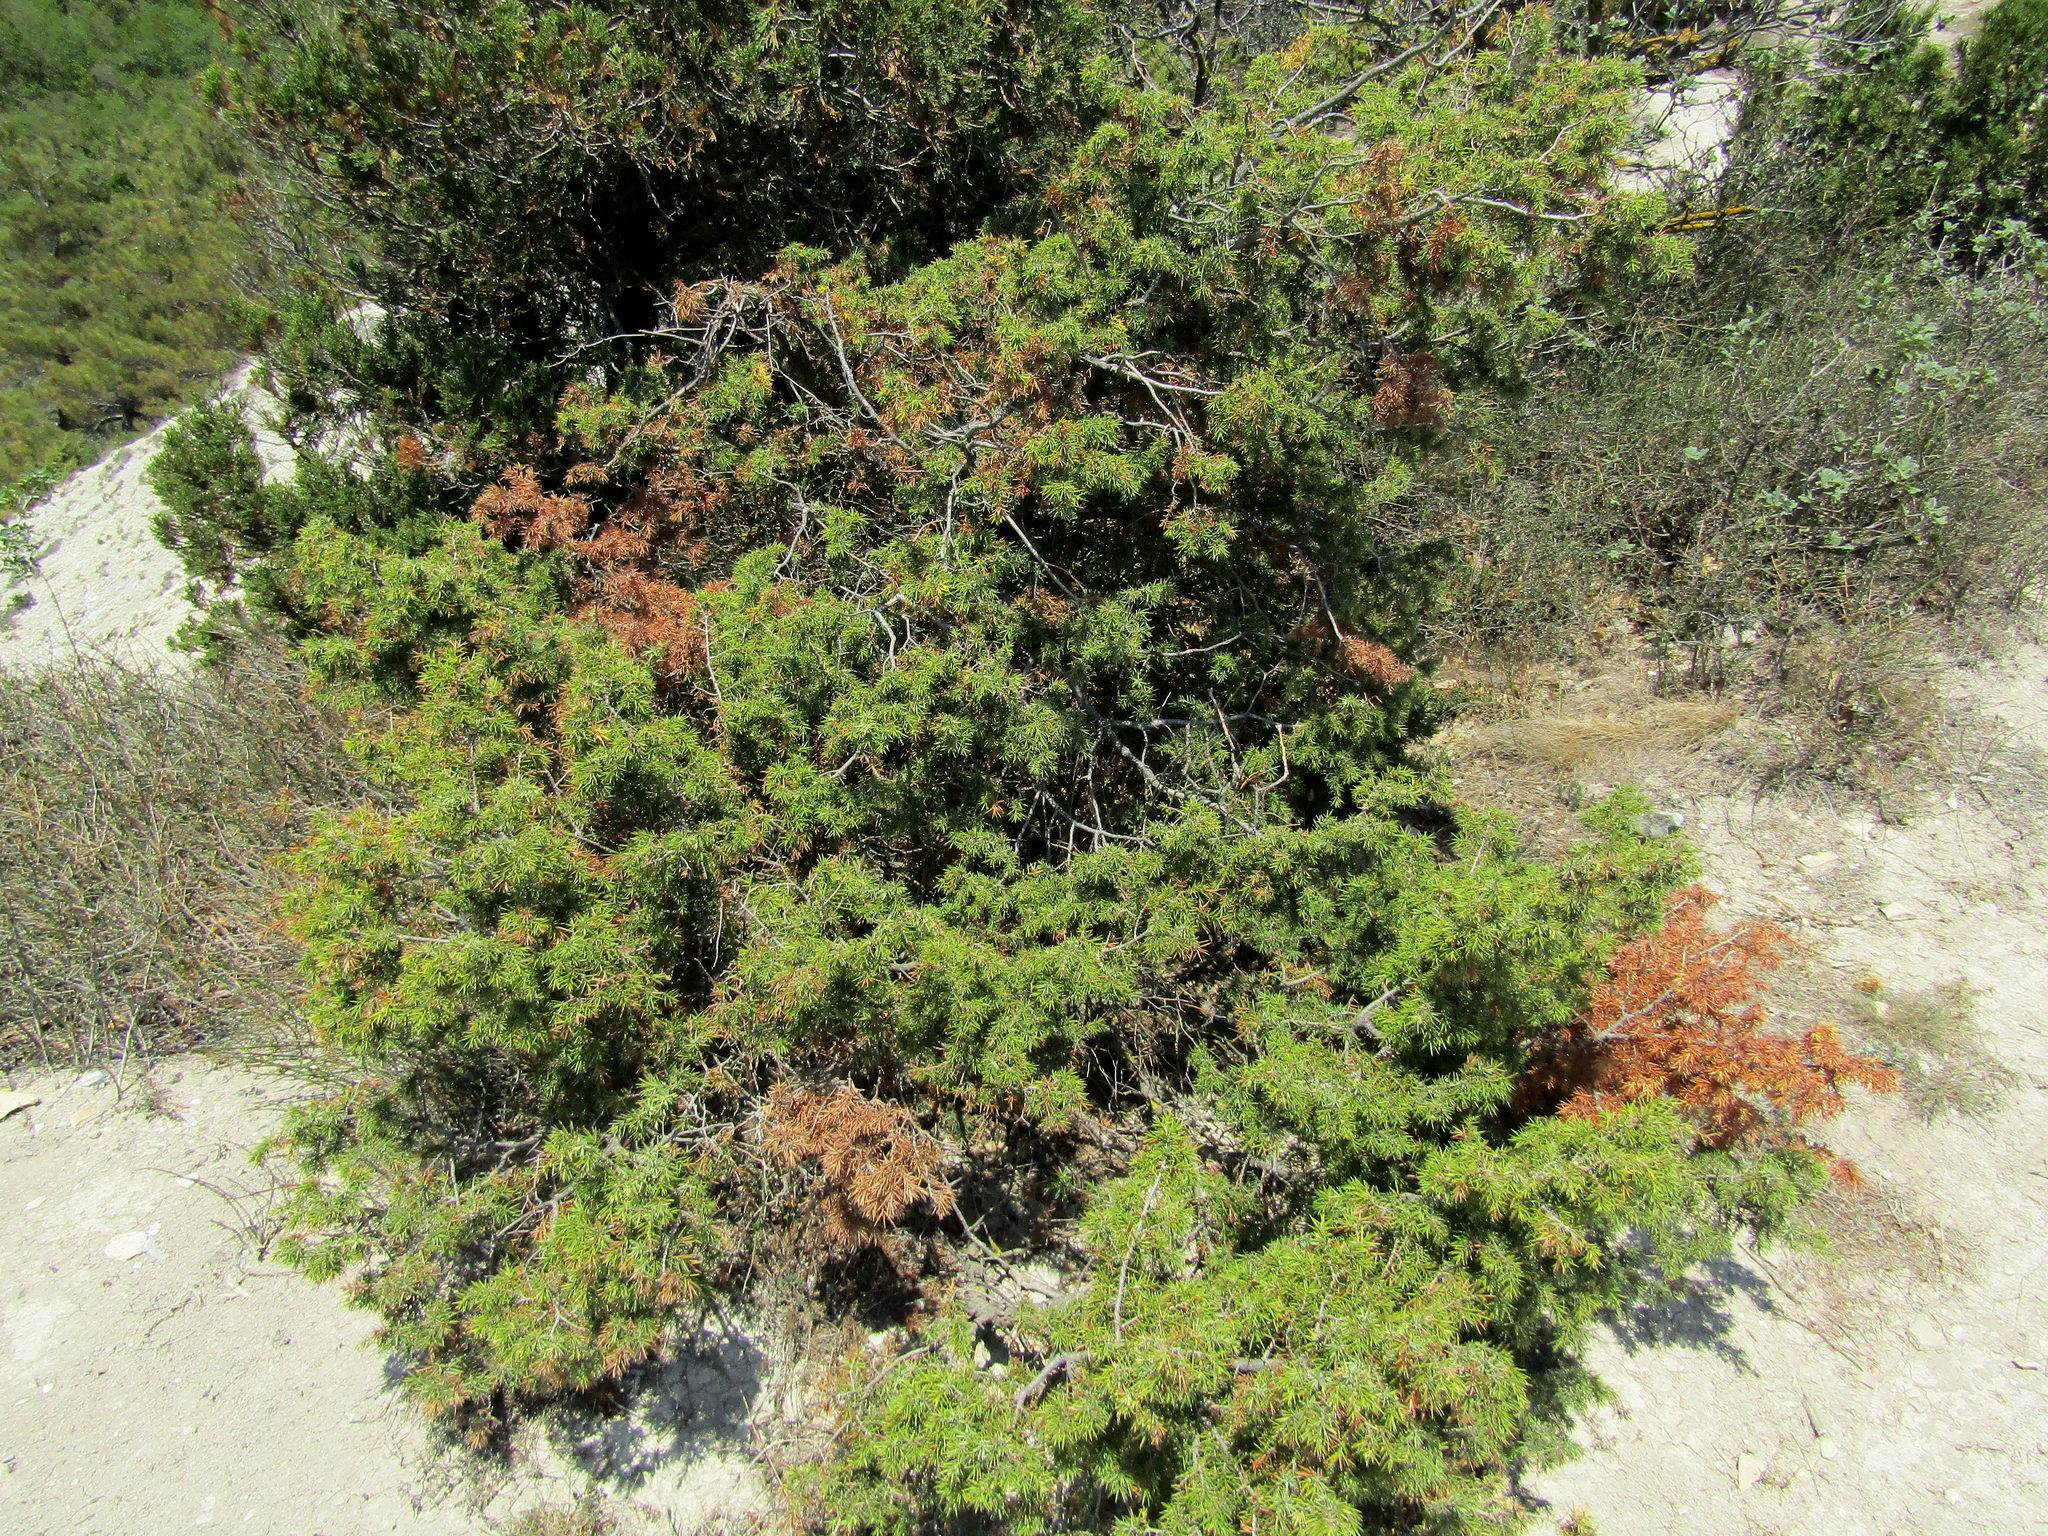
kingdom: Plantae
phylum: Tracheophyta
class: Pinopsida
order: Pinales
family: Cupressaceae
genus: Juniperus
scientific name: Juniperus oxycedrus
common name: Prickly juniper
